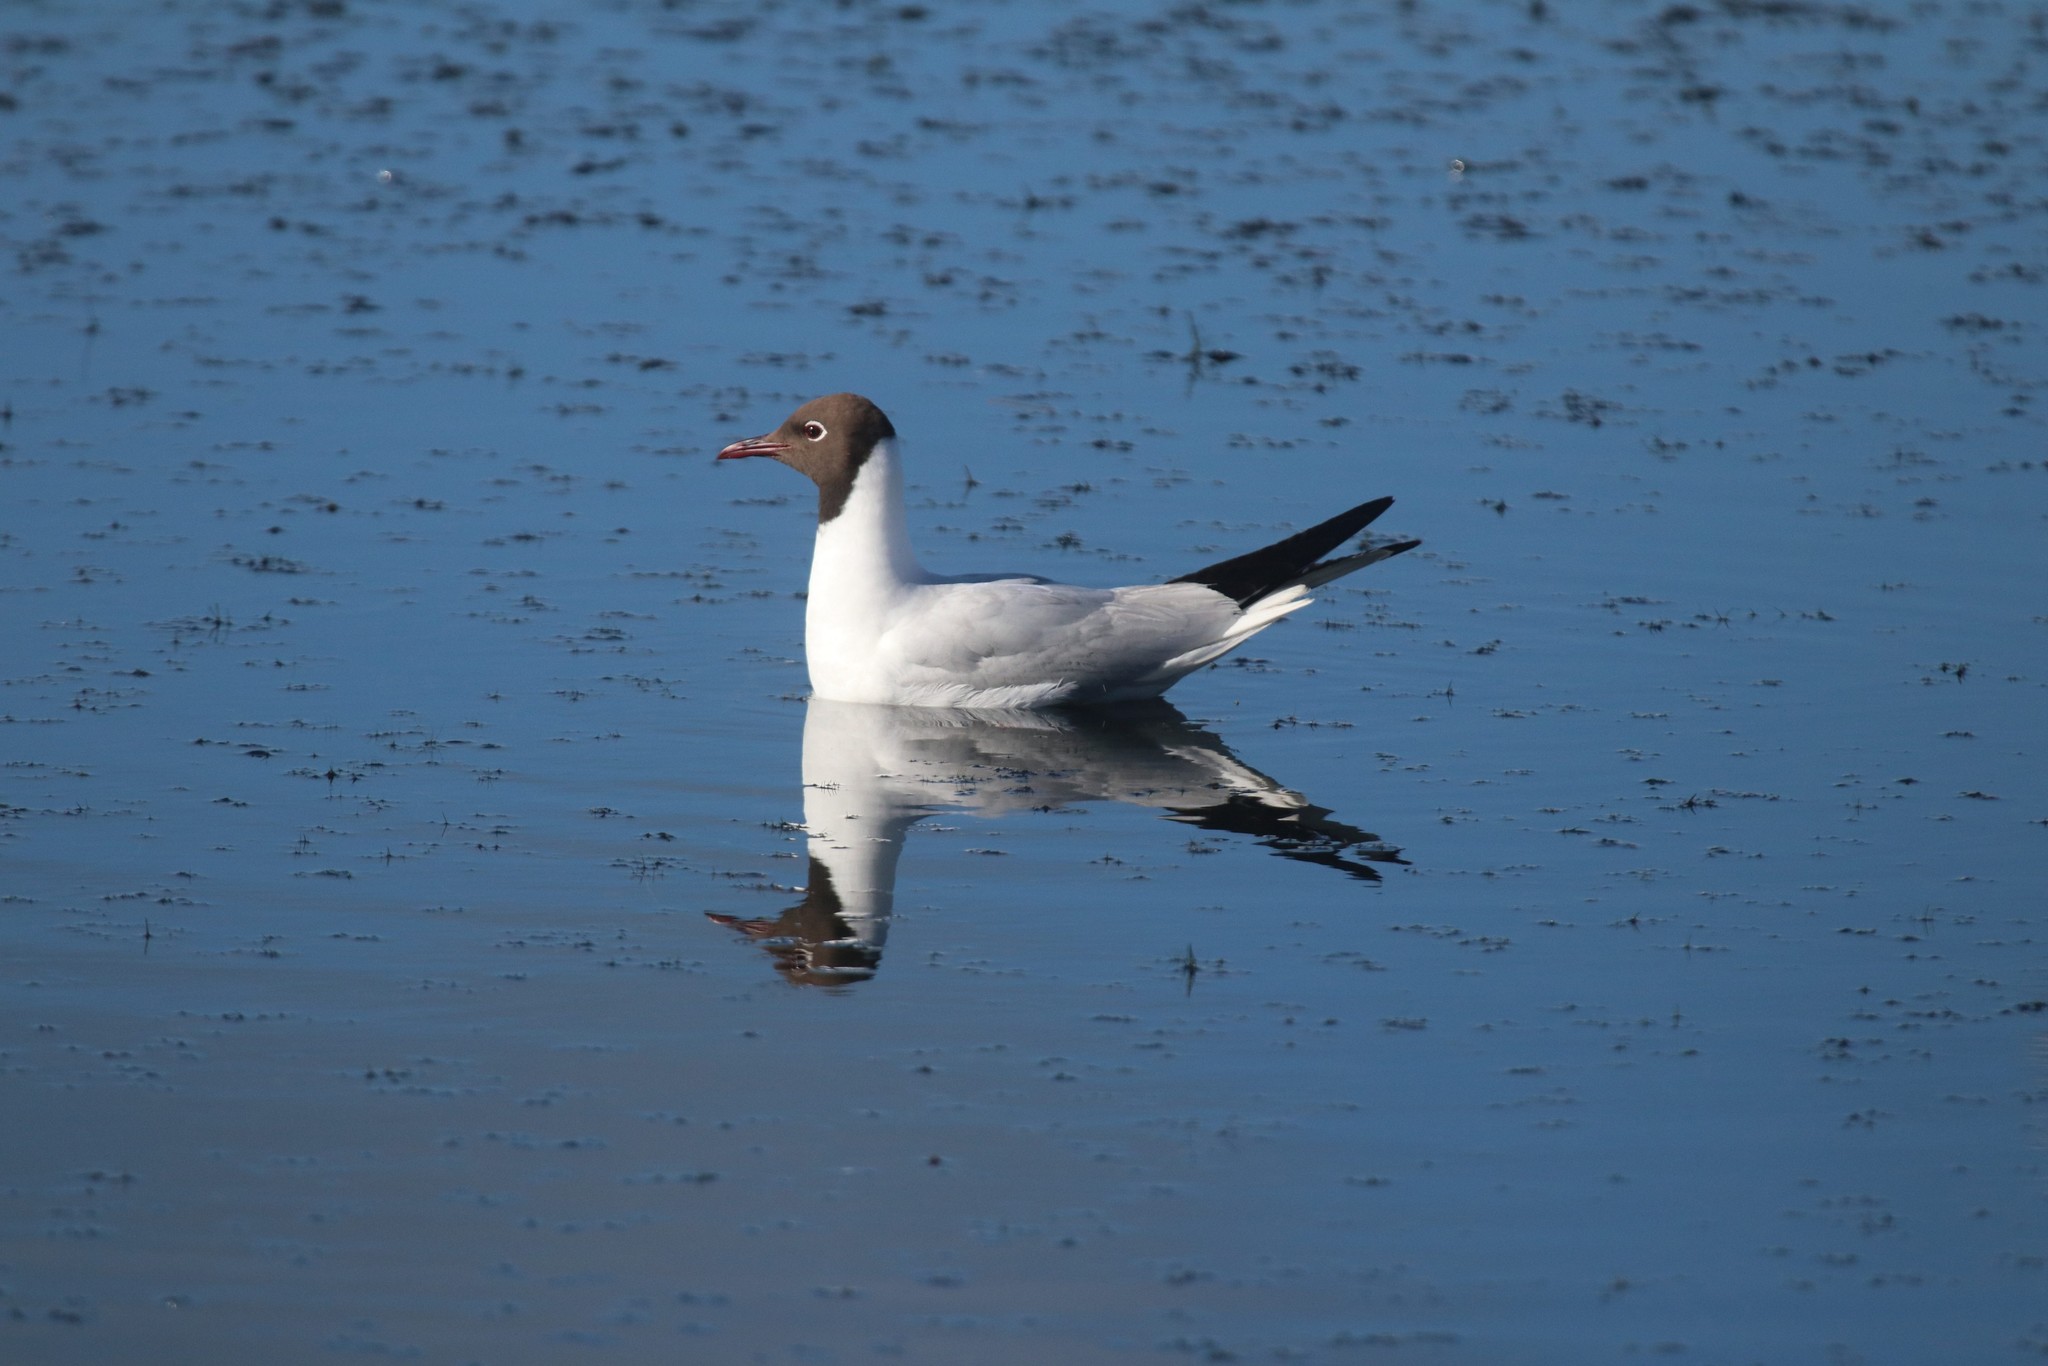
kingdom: Animalia
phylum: Chordata
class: Aves
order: Charadriiformes
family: Laridae
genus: Chroicocephalus
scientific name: Chroicocephalus ridibundus
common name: Black-headed gull
